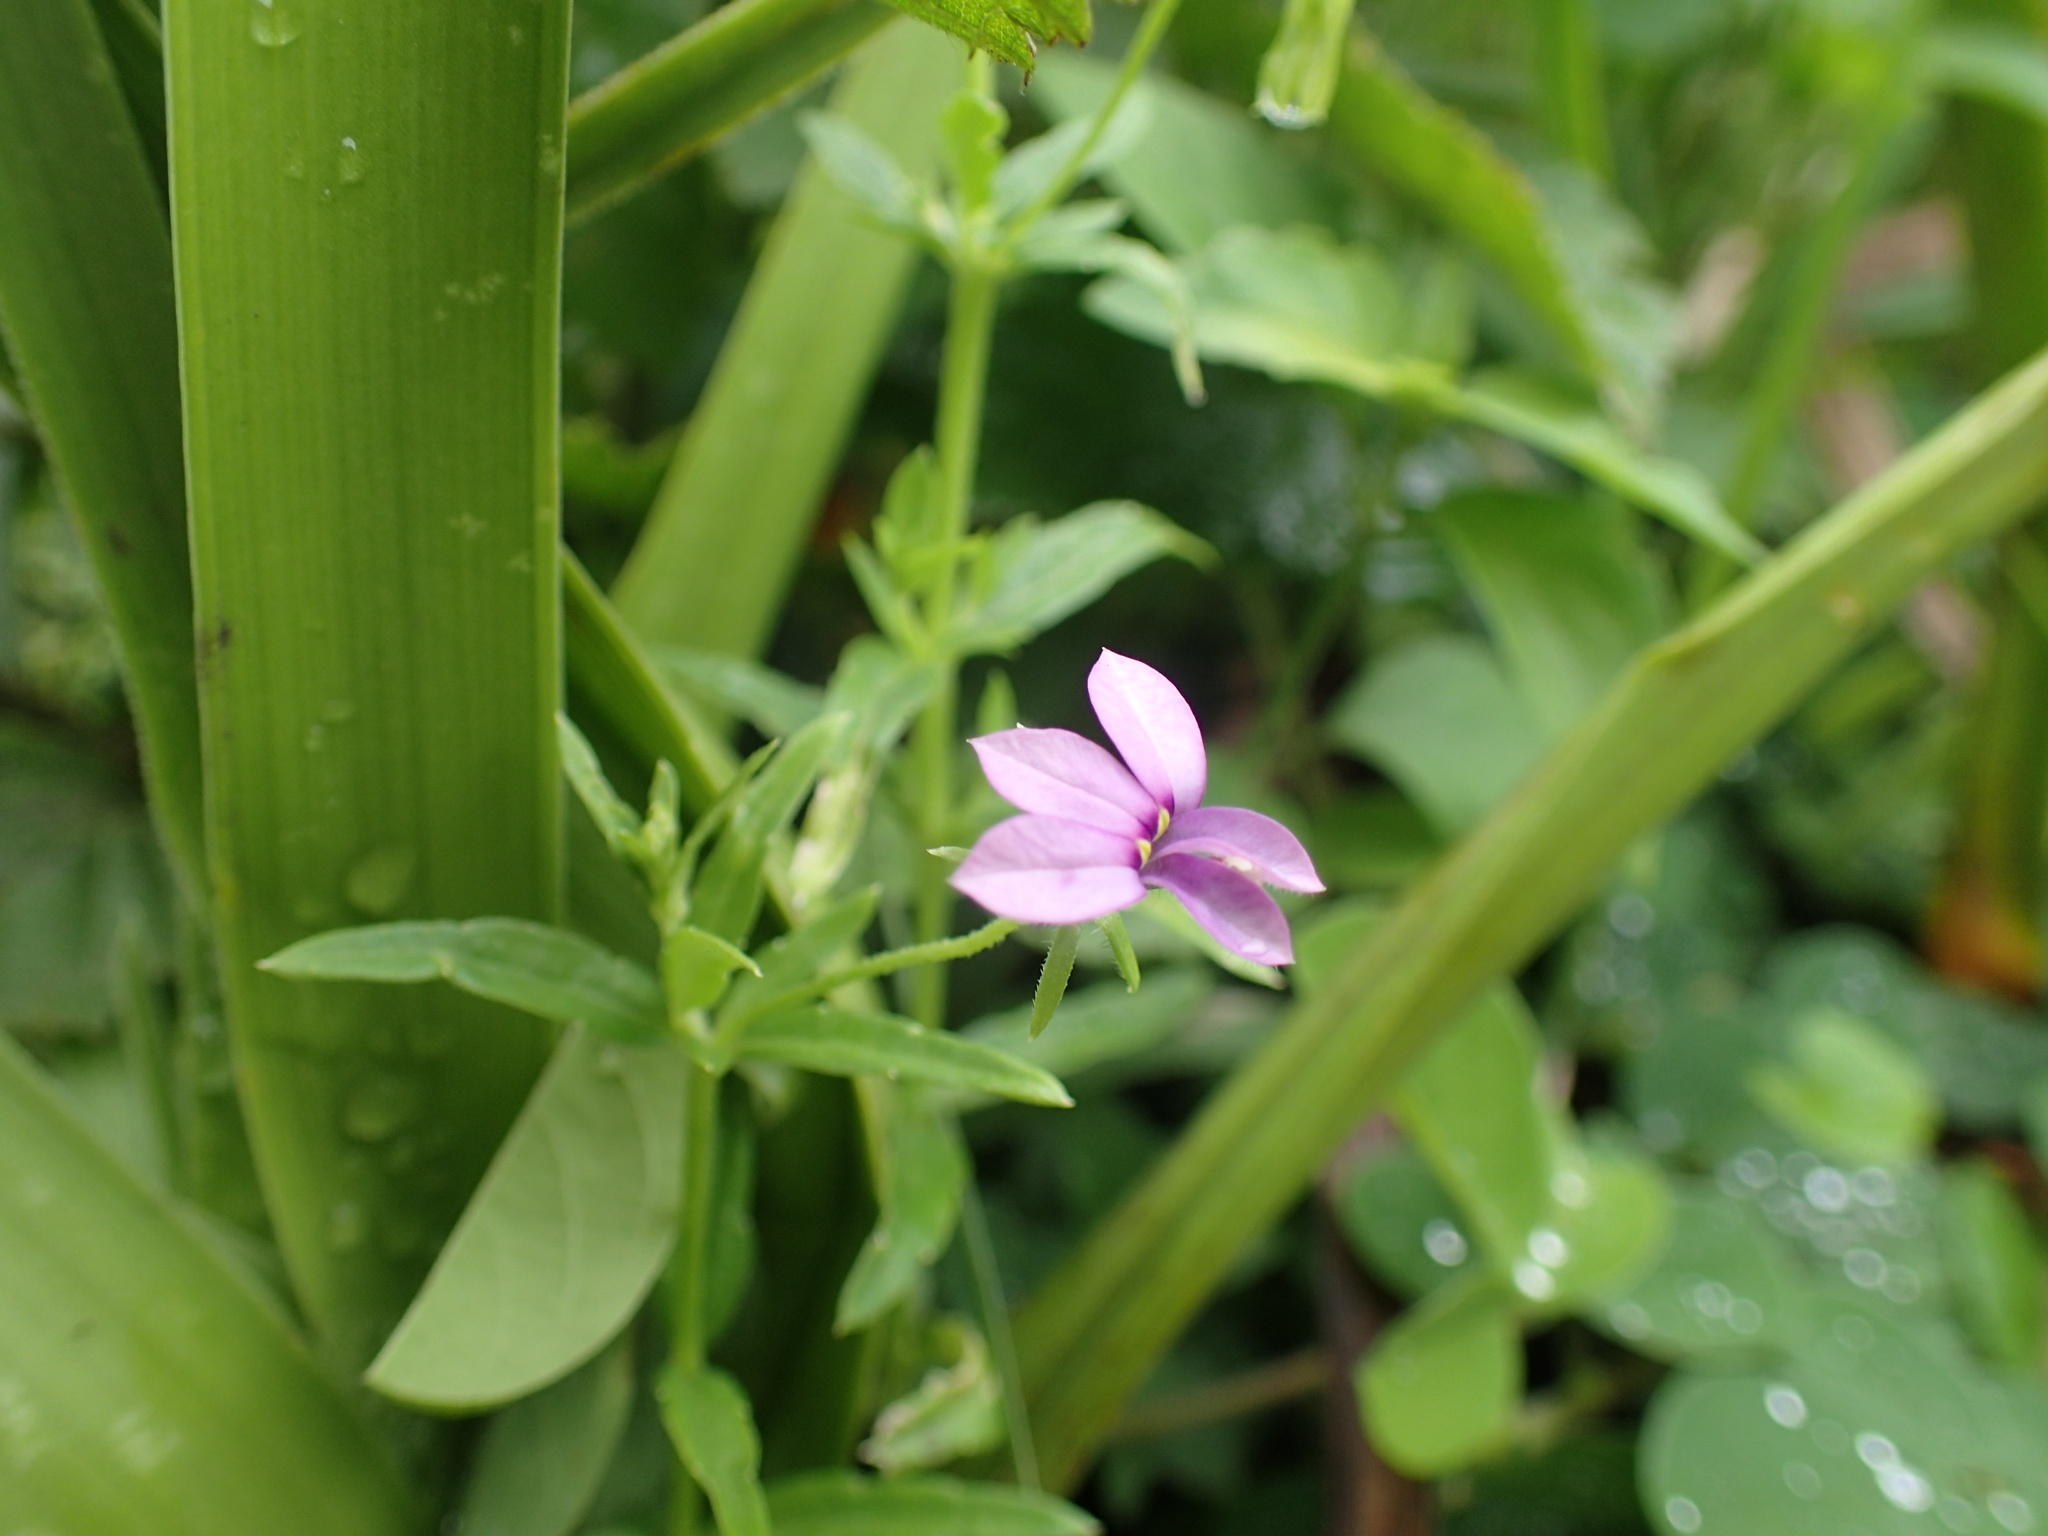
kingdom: Plantae
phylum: Tracheophyta
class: Magnoliopsida
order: Asterales
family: Campanulaceae
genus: Monopsis
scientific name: Monopsis stellarioides
